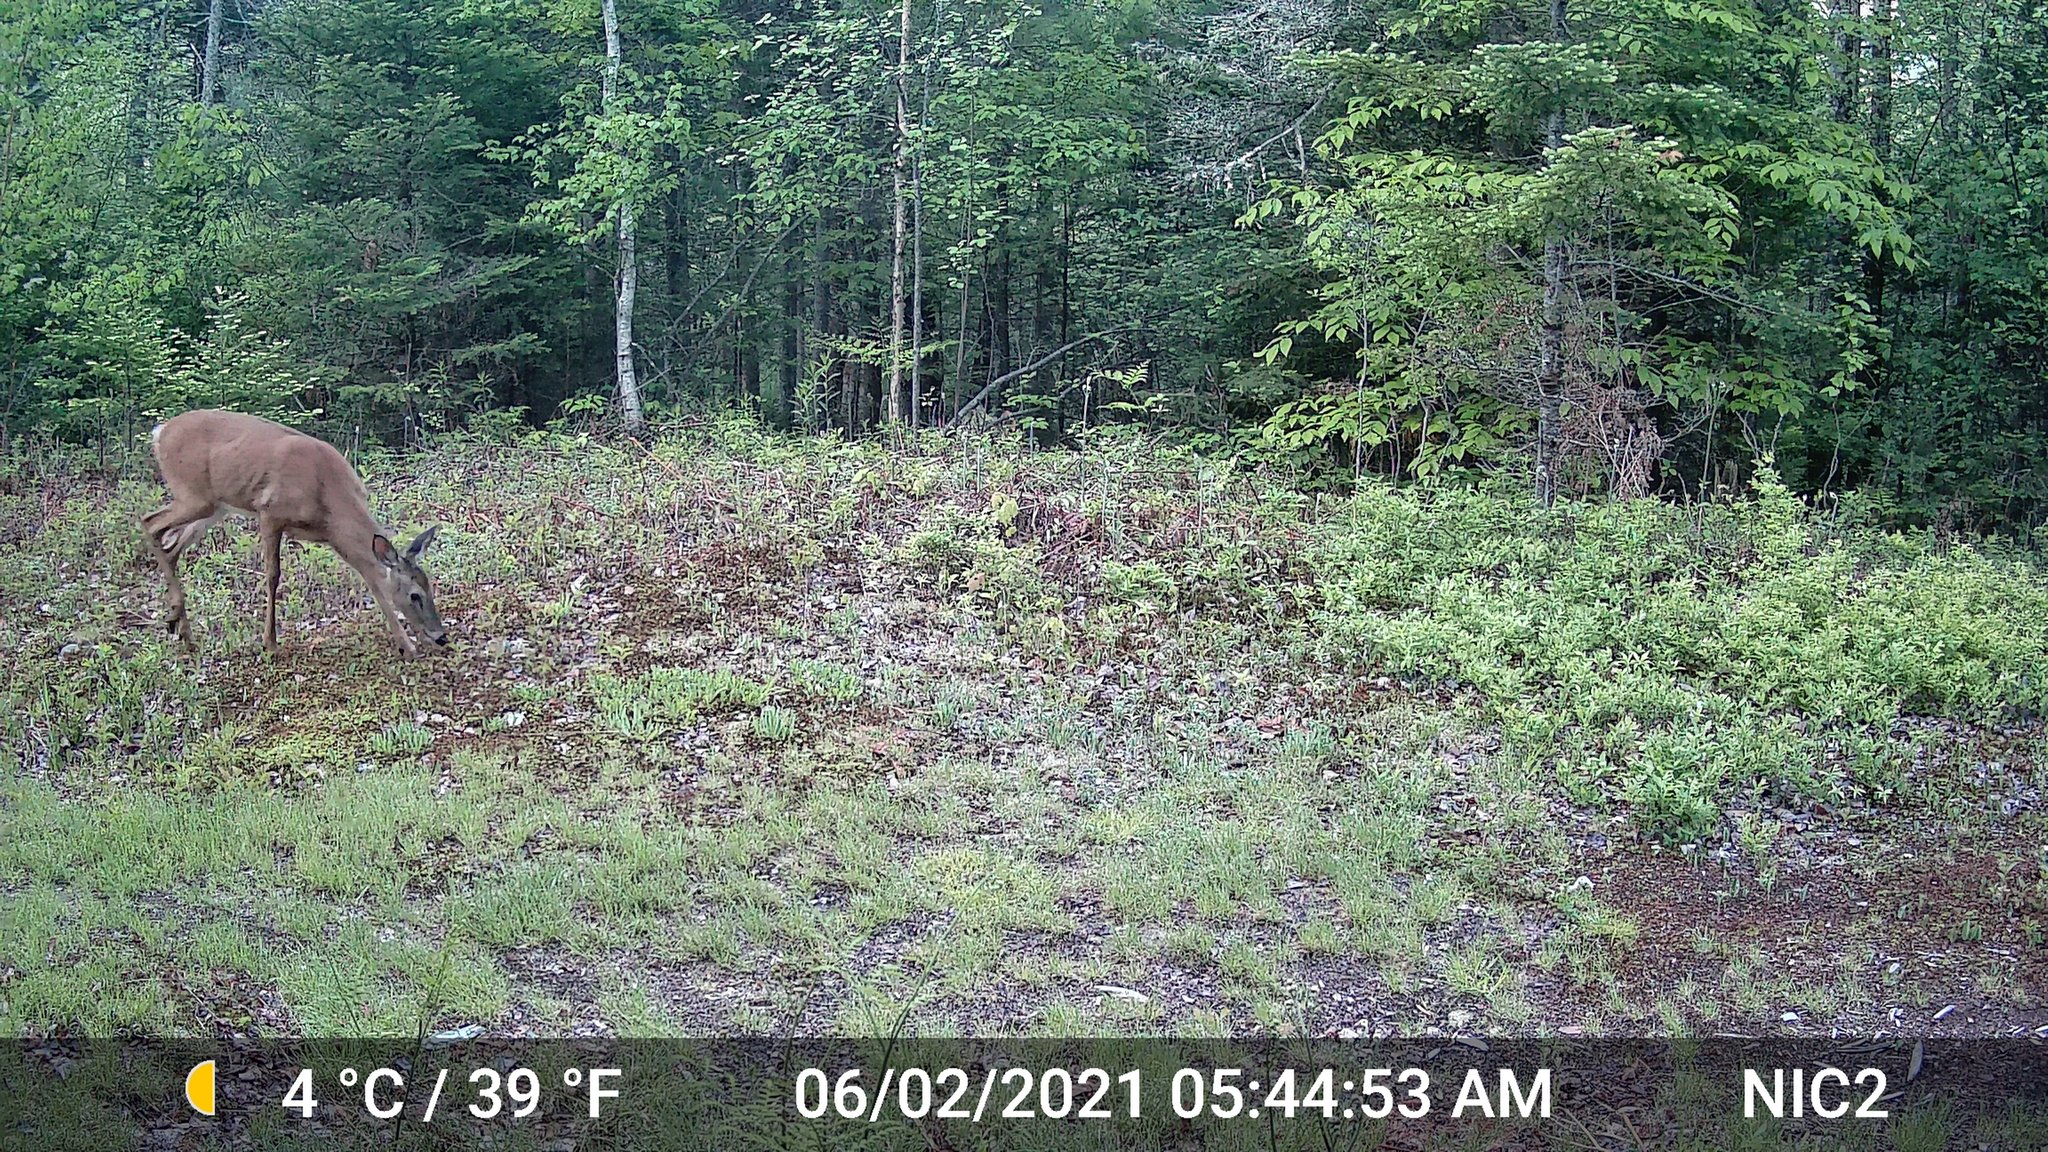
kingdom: Animalia
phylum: Chordata
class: Mammalia
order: Artiodactyla
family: Cervidae
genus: Odocoileus
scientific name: Odocoileus virginianus
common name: White-tailed deer
